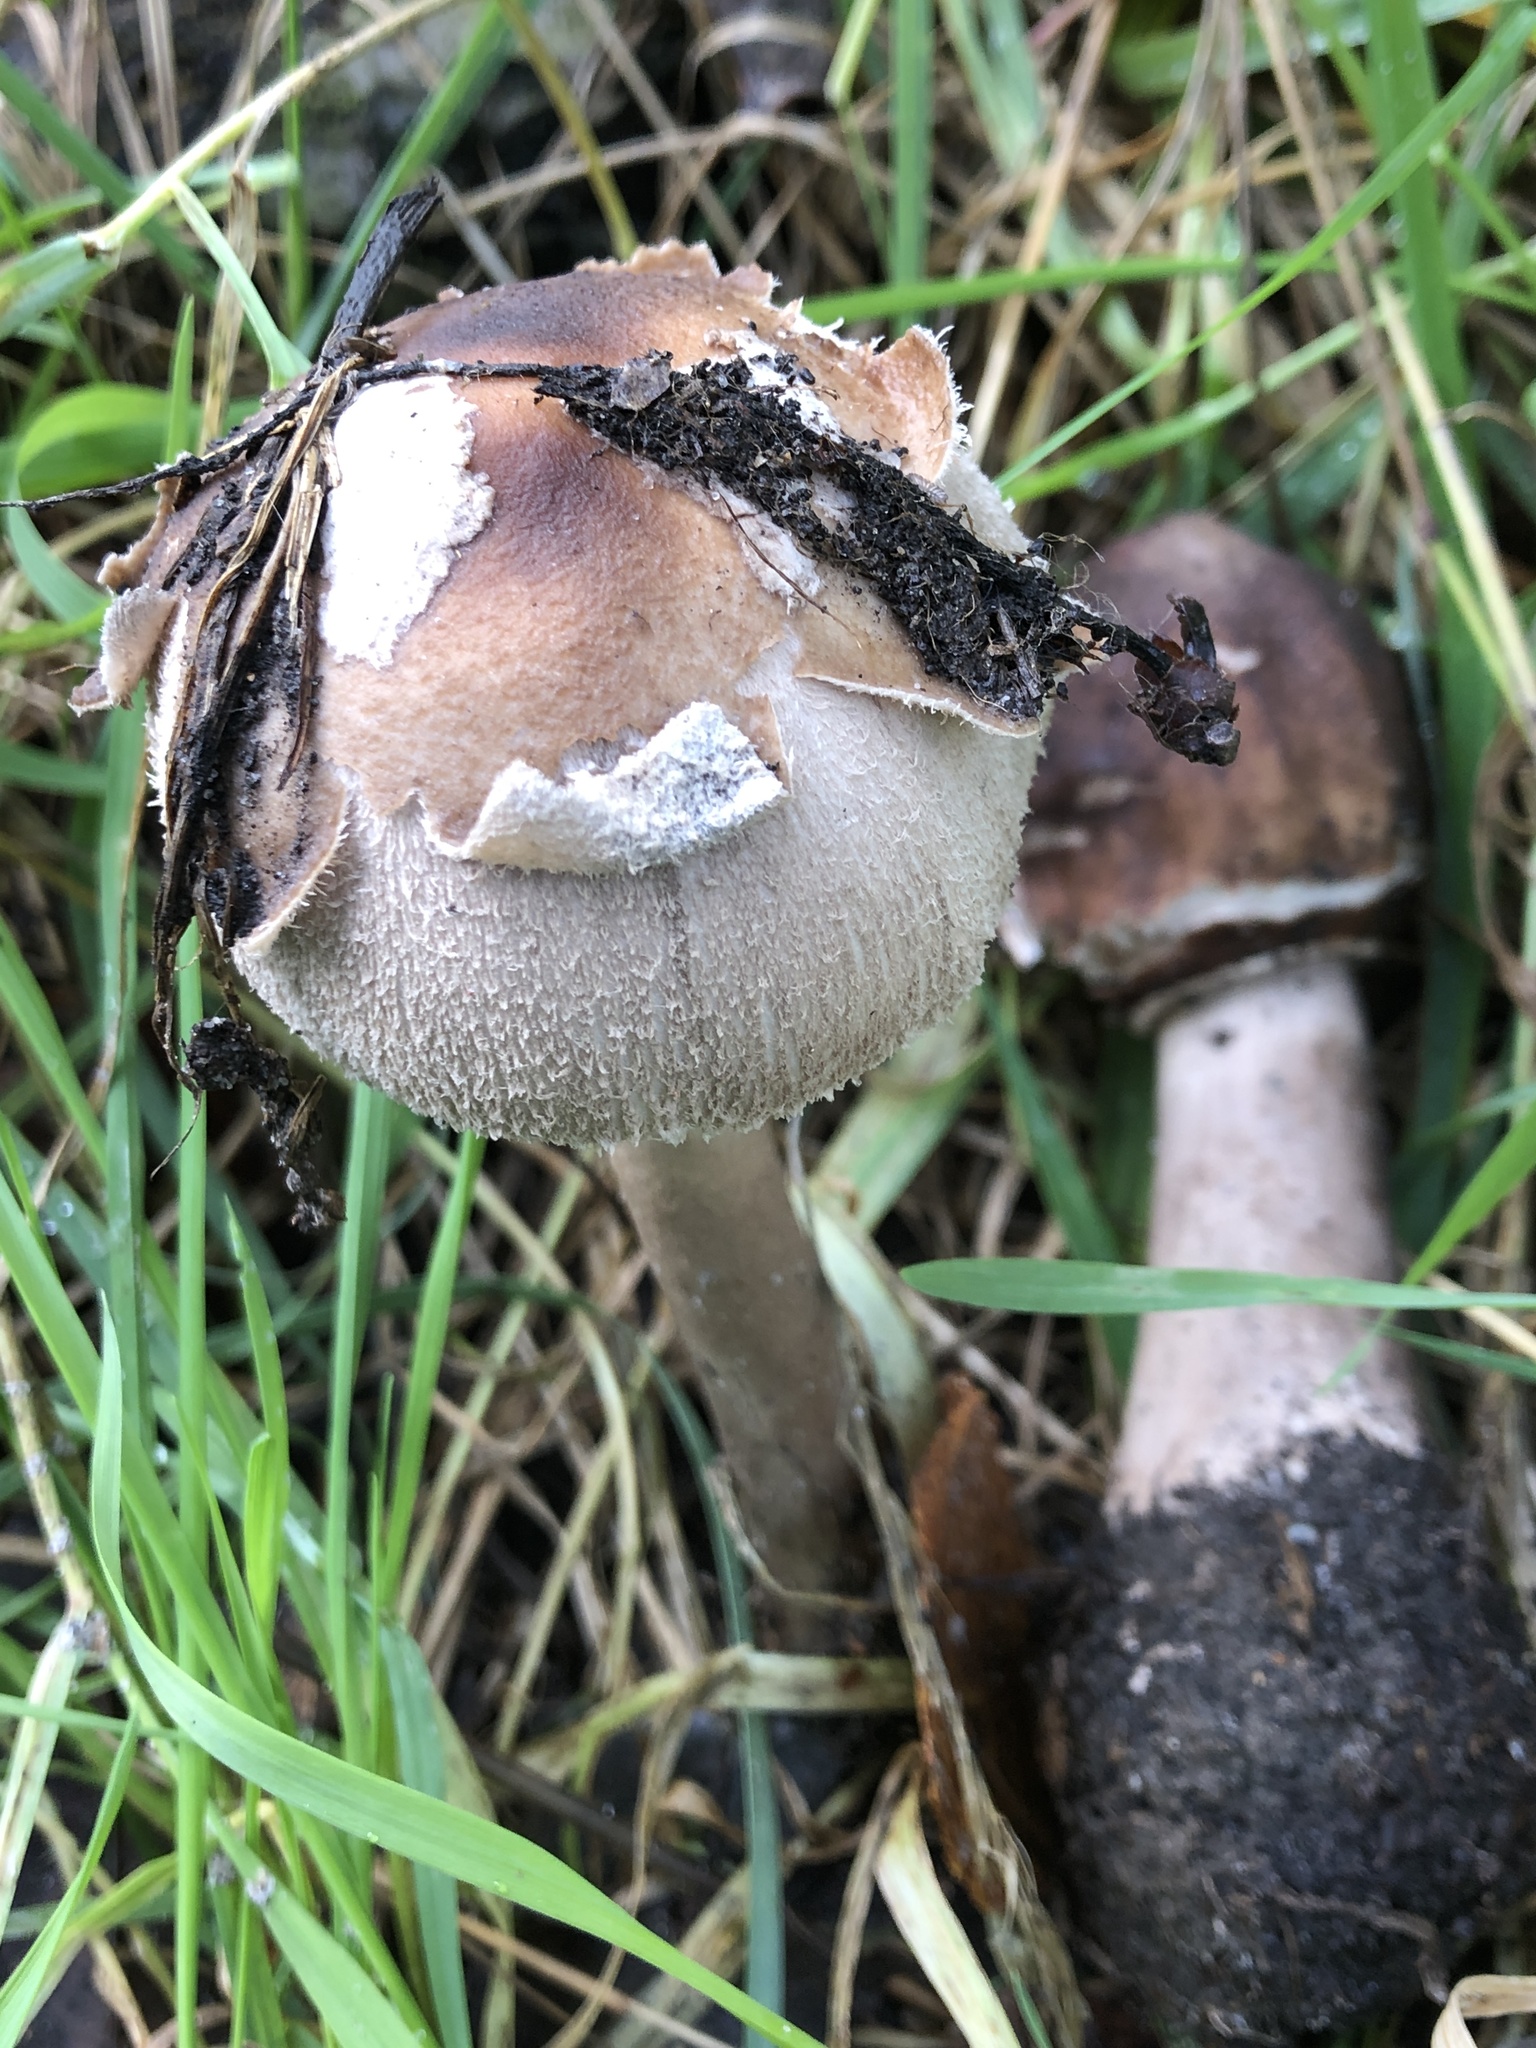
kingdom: Fungi
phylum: Basidiomycota
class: Agaricomycetes
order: Agaricales
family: Agaricaceae
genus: Chlorophyllum
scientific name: Chlorophyllum rhacodes
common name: Shaggy parasol
